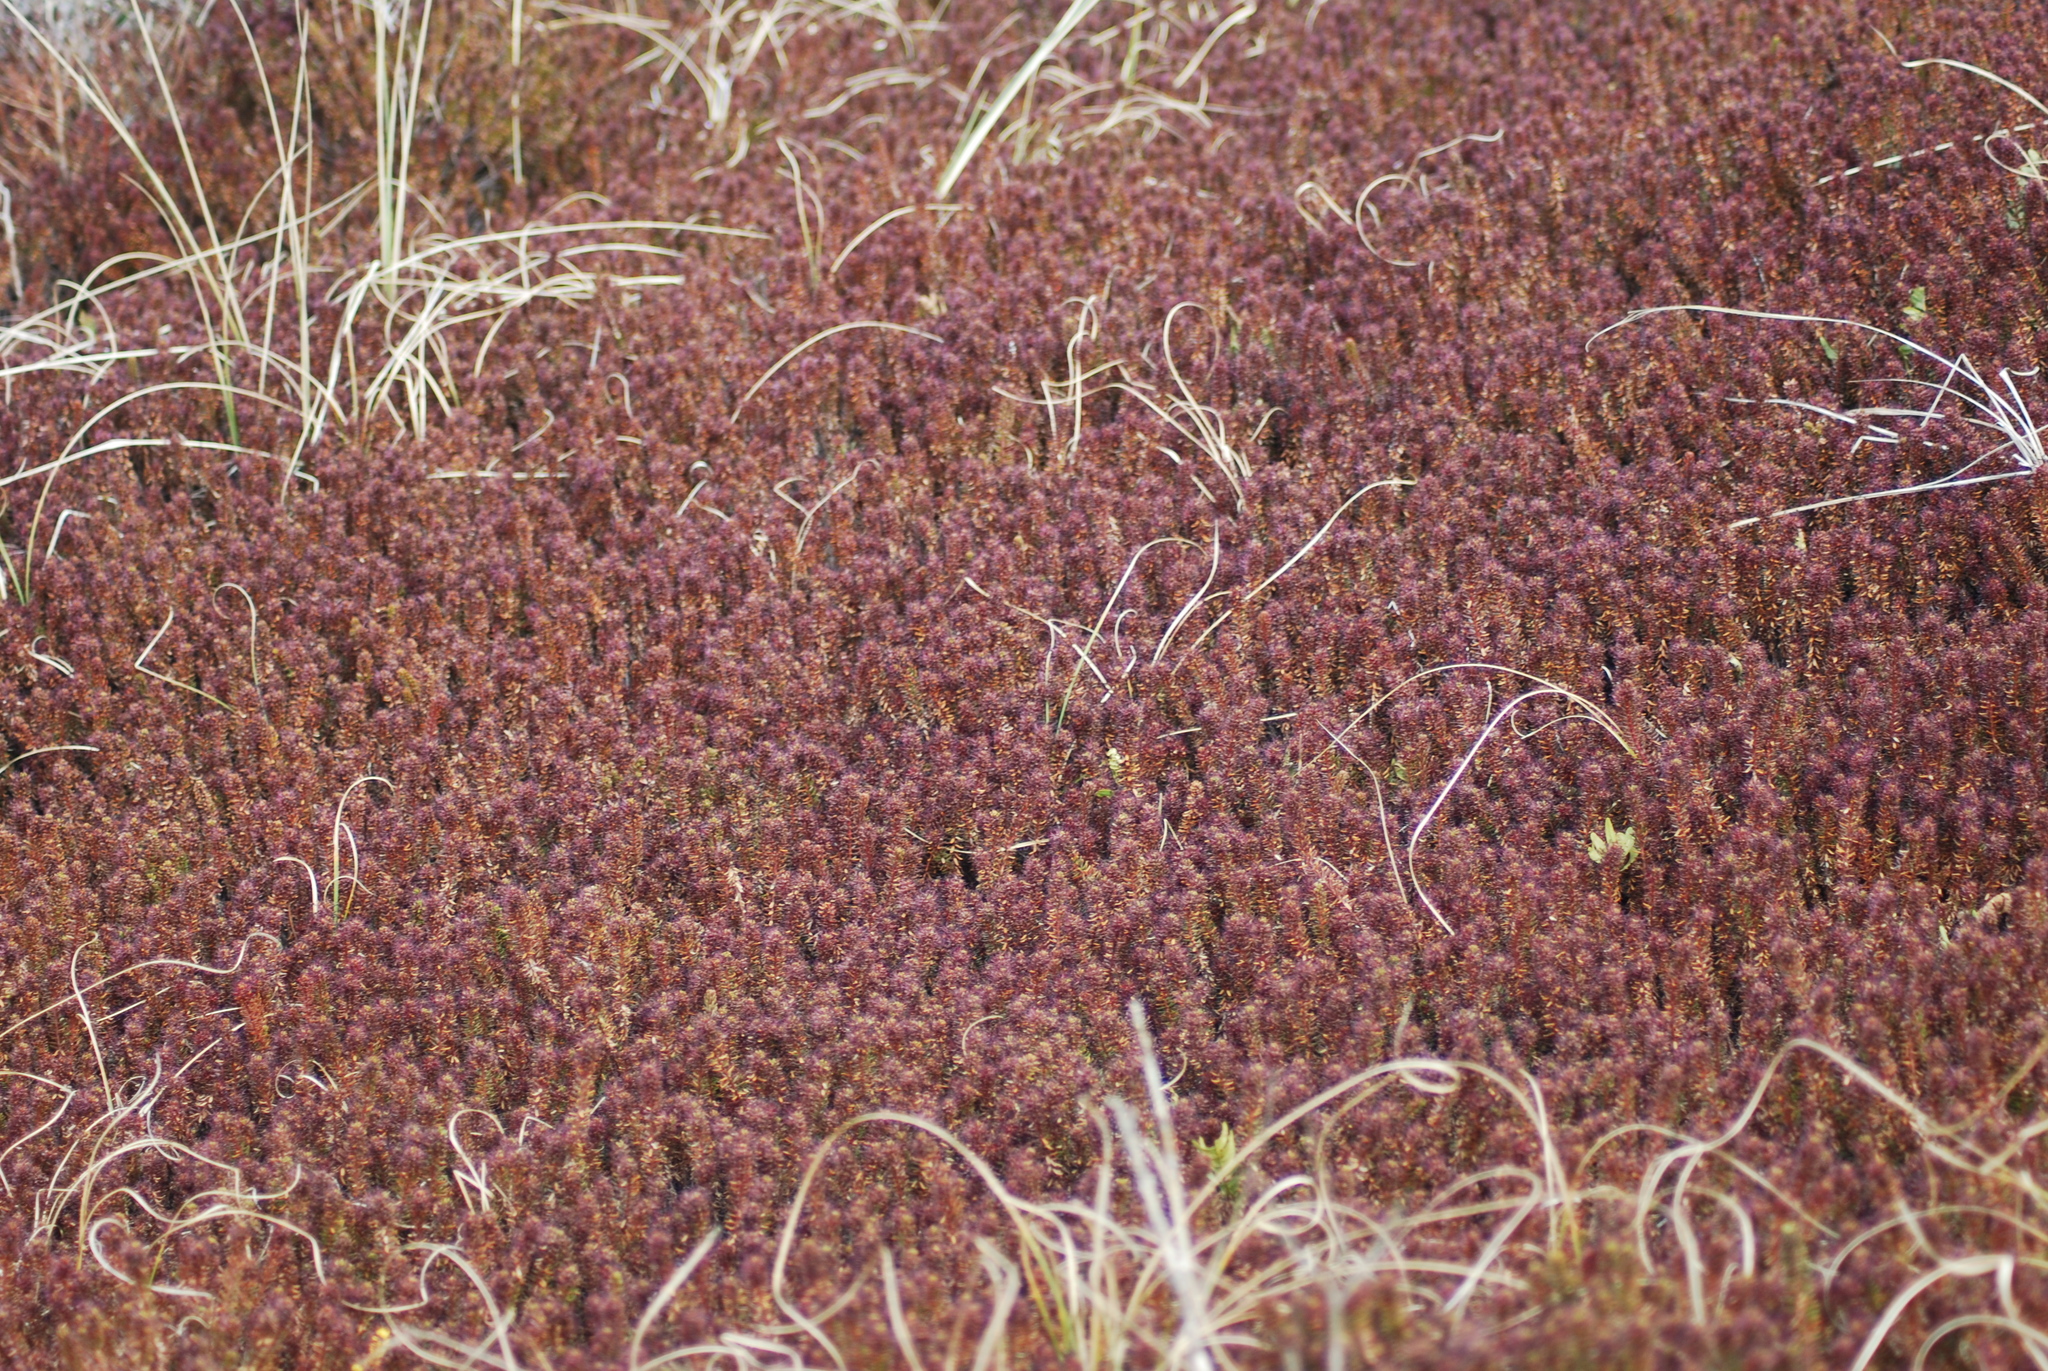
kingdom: Plantae
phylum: Tracheophyta
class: Magnoliopsida
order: Ericales
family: Ericaceae
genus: Empetrum
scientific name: Empetrum nigrum
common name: Black crowberry
